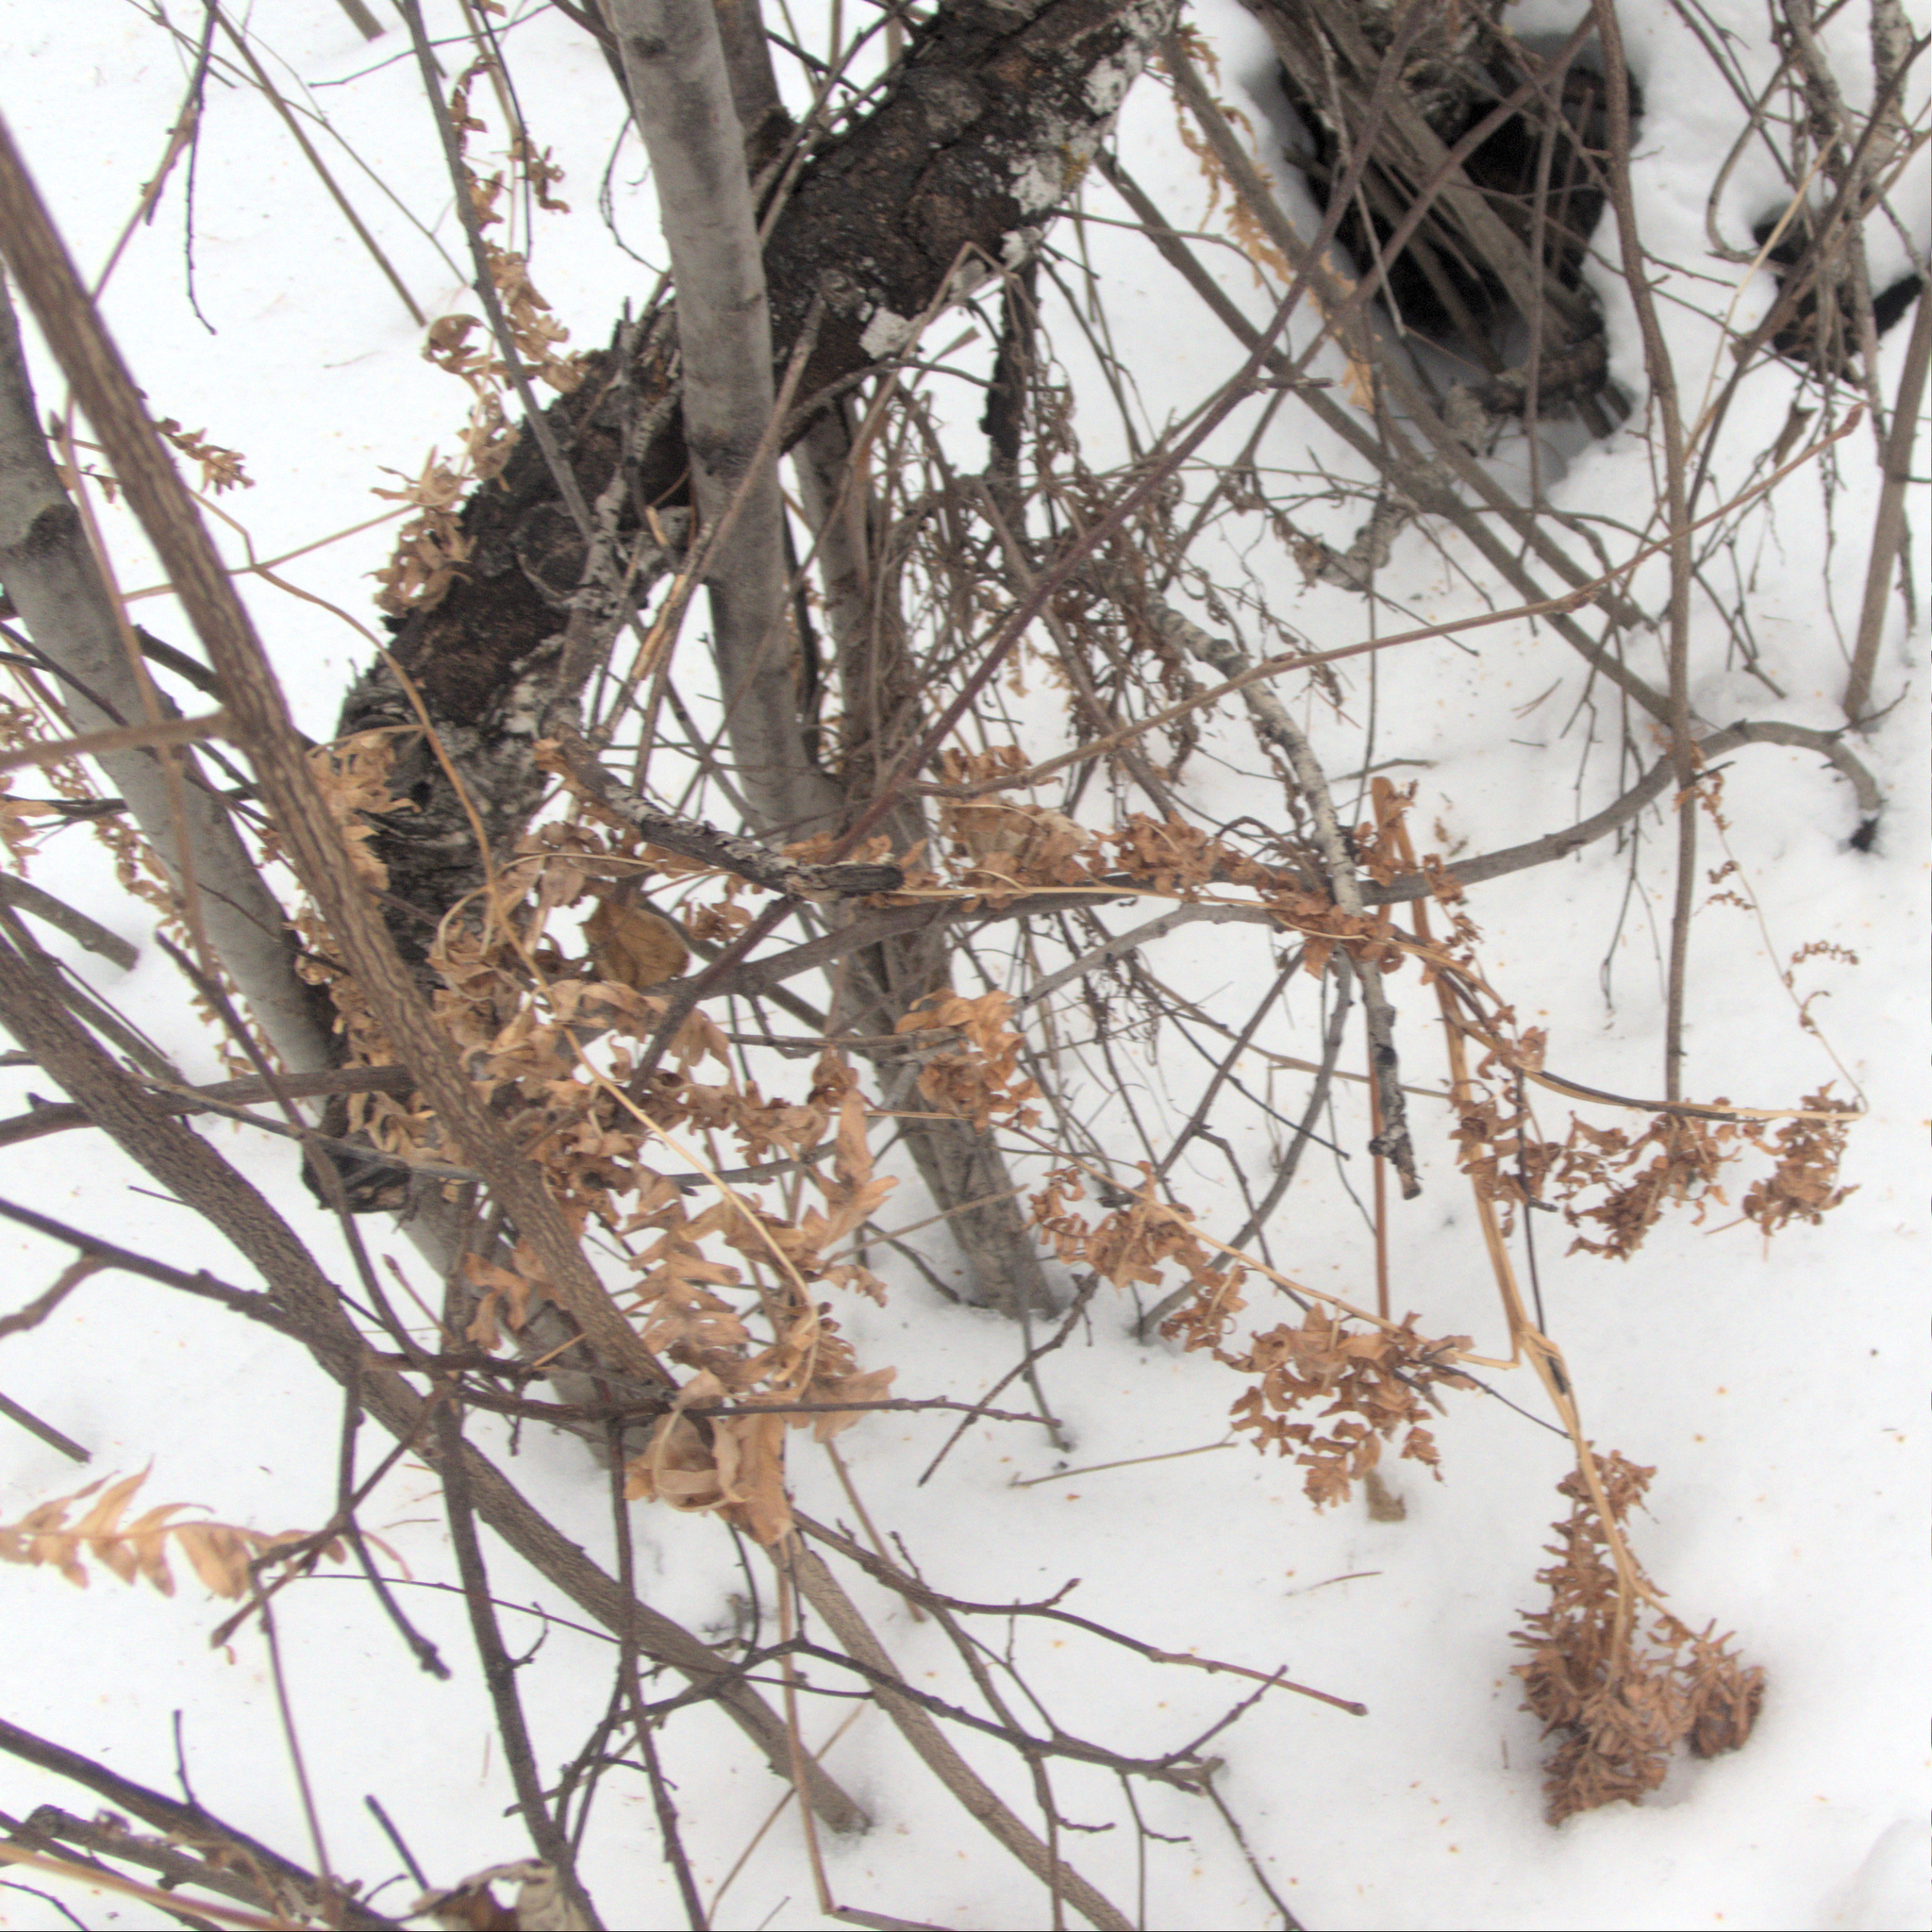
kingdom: Plantae
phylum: Tracheophyta
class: Polypodiopsida
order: Polypodiales
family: Dennstaedtiaceae
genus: Pteridium
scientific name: Pteridium aquilinum
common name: Bracken
